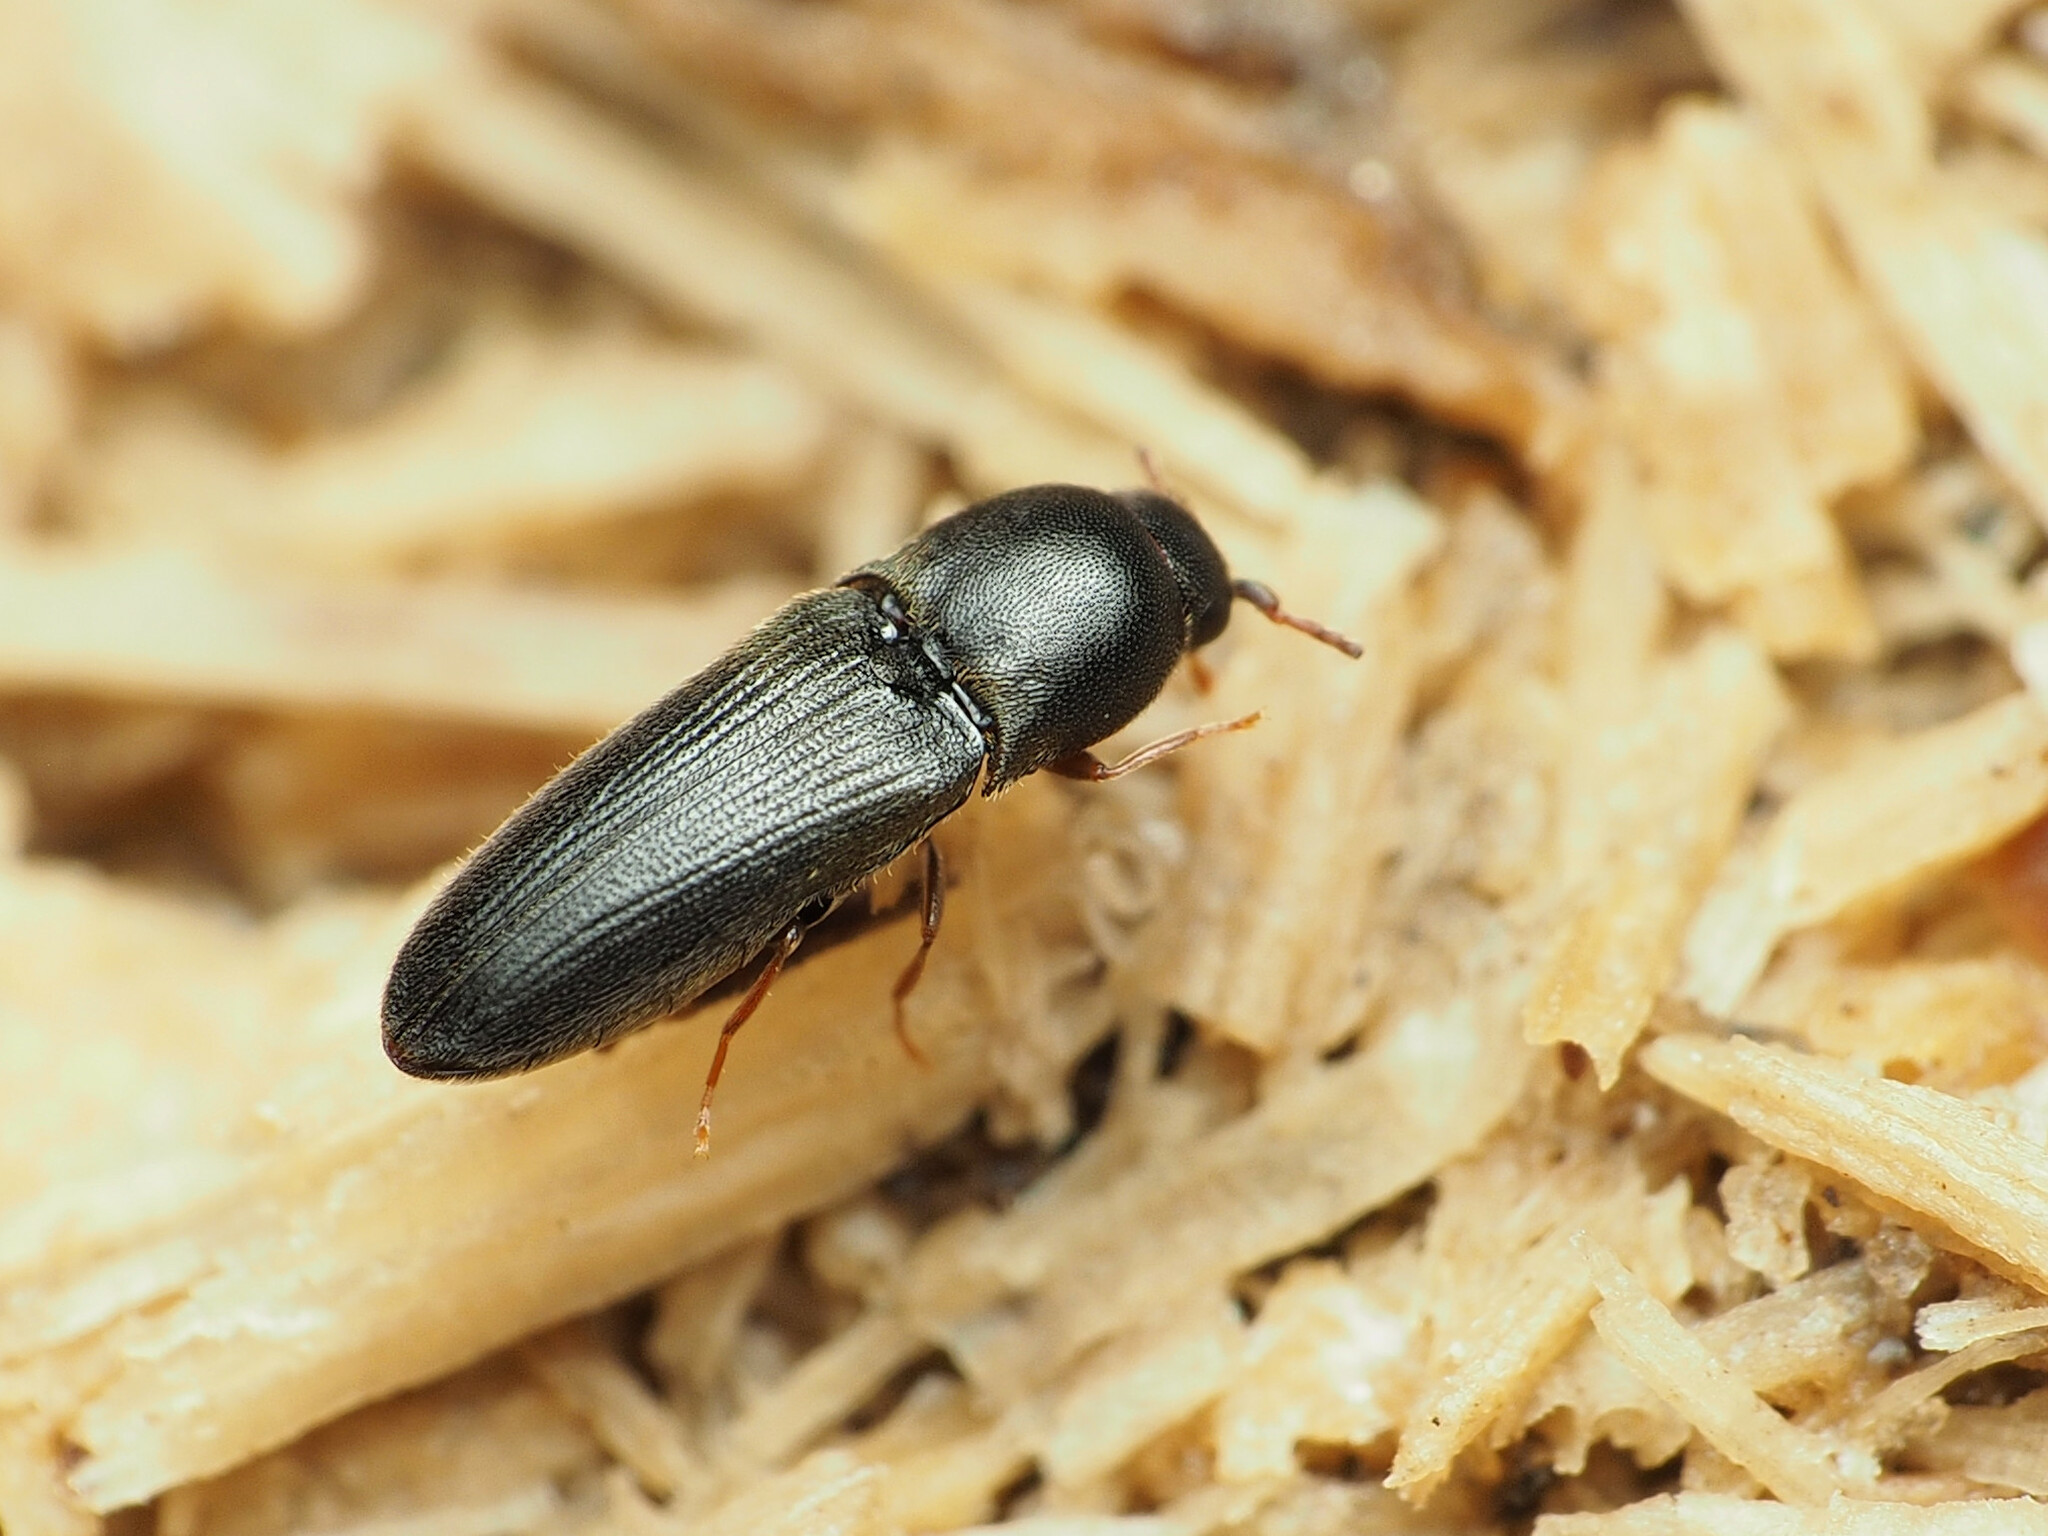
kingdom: Animalia
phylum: Arthropoda
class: Insecta
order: Coleoptera
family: Eucnemidae
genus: Deltometopus
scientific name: Deltometopus amoenicornis
